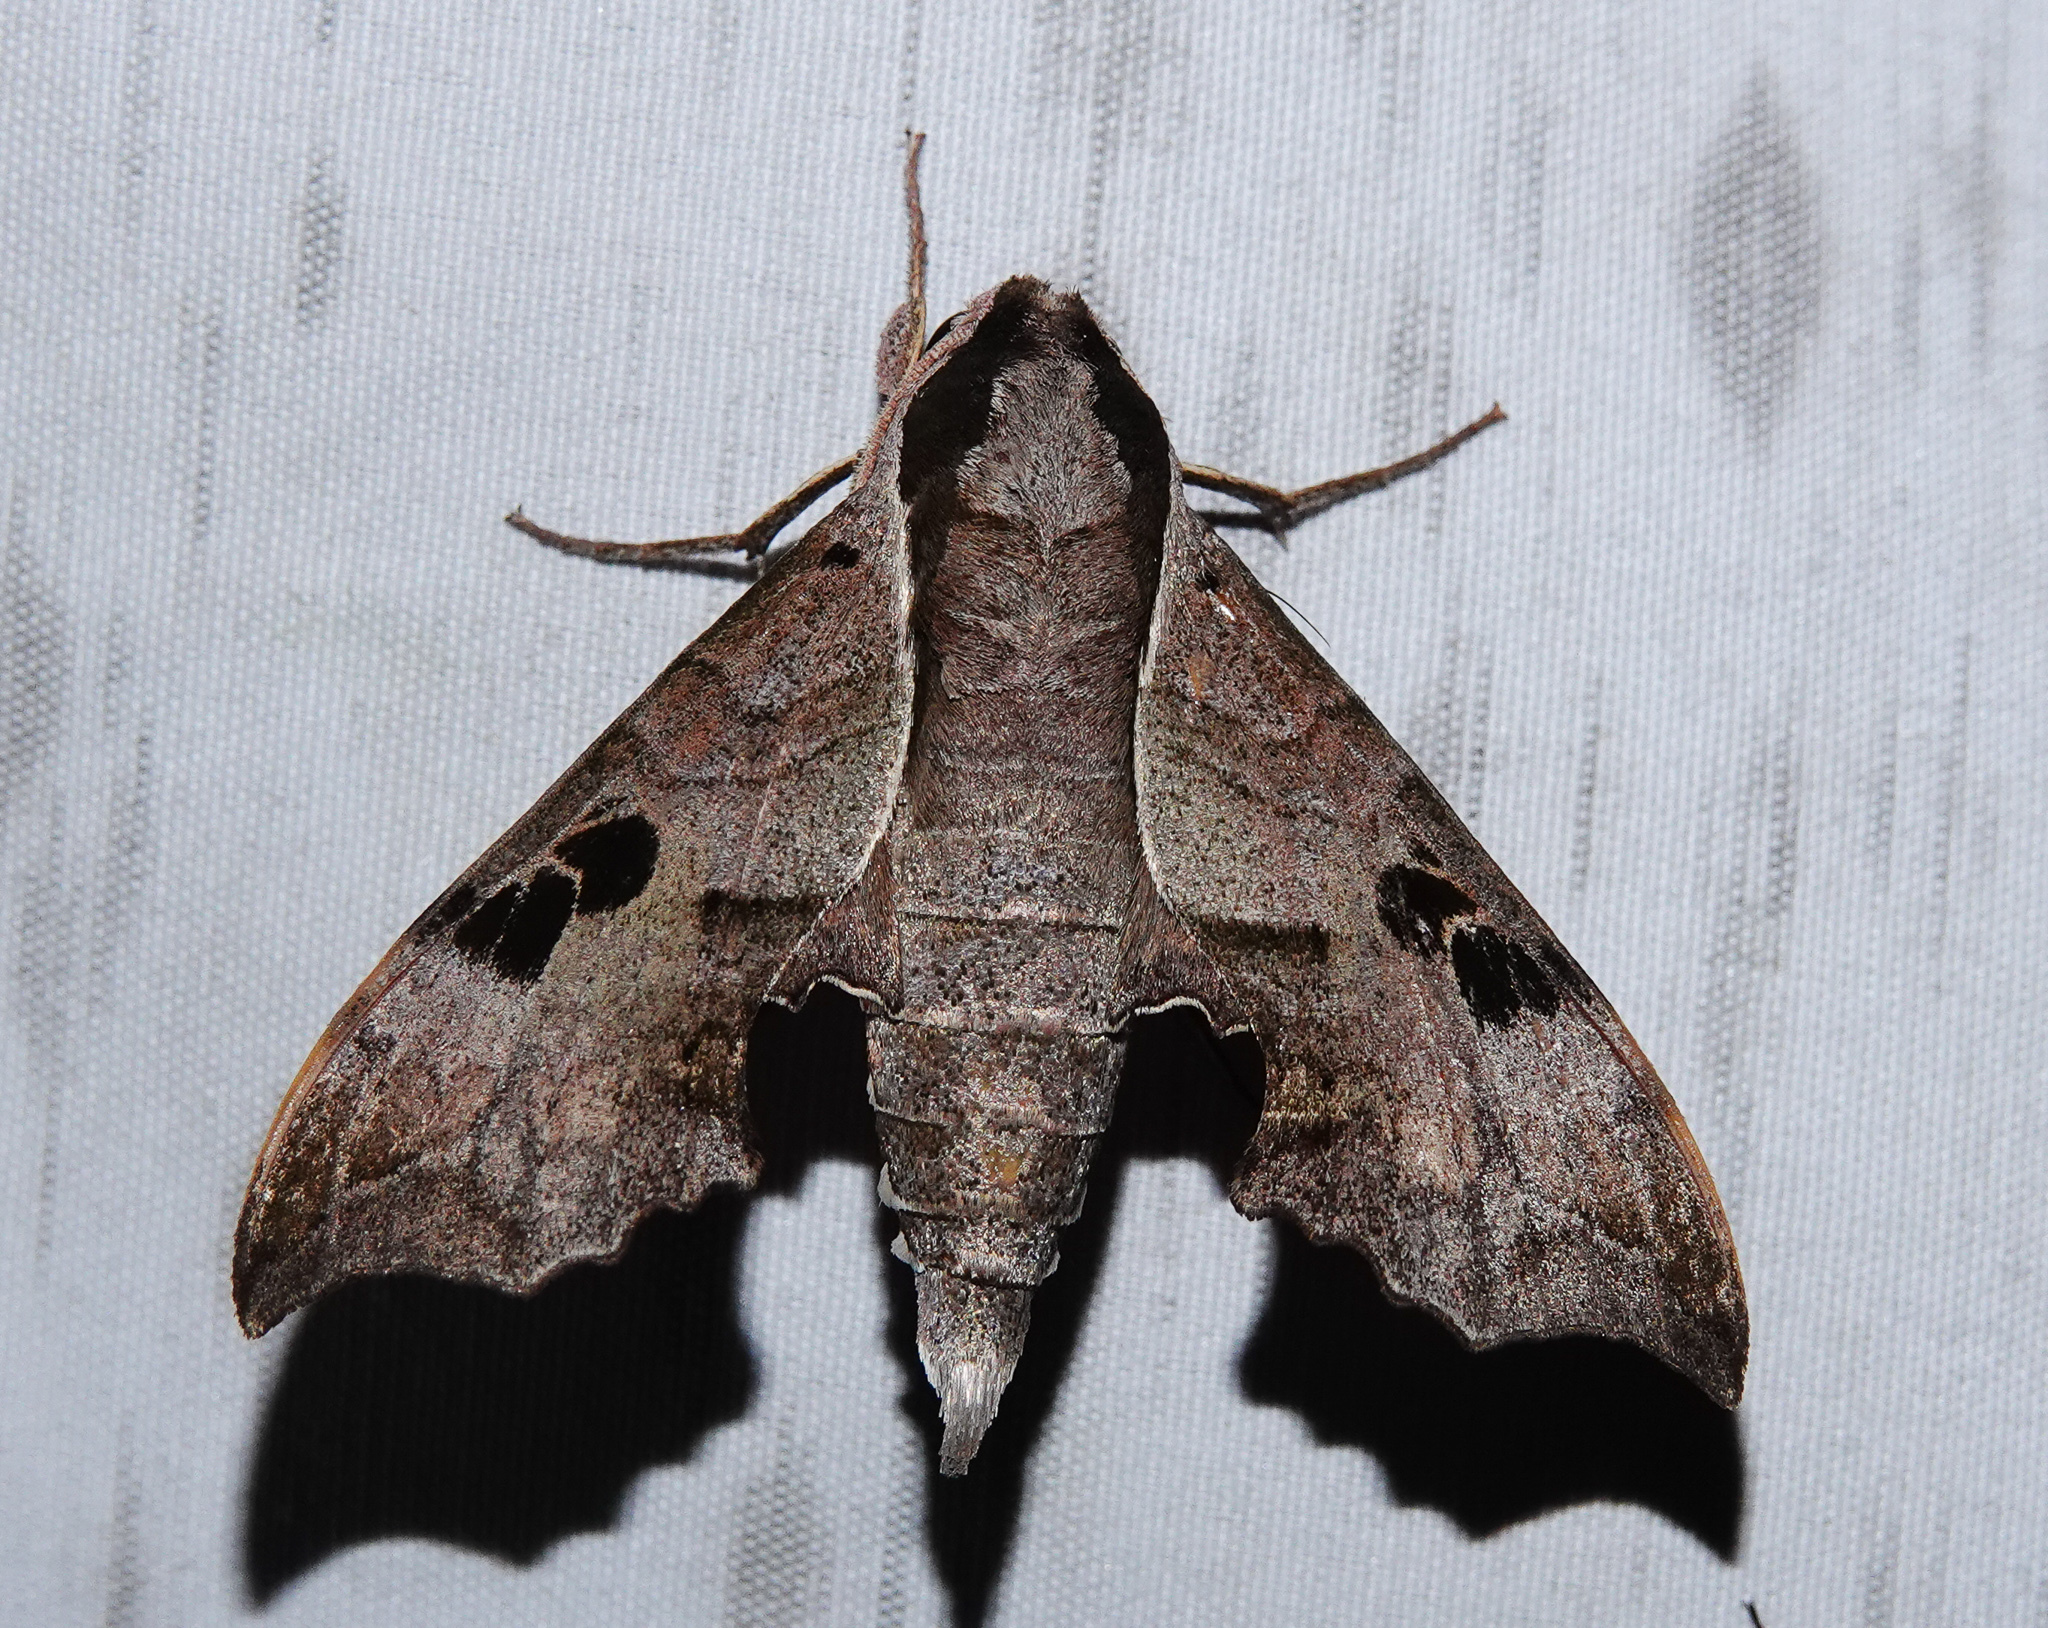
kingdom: Animalia
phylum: Arthropoda
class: Insecta
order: Lepidoptera
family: Sphingidae
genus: Enpinanga
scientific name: Enpinanga assamensis
